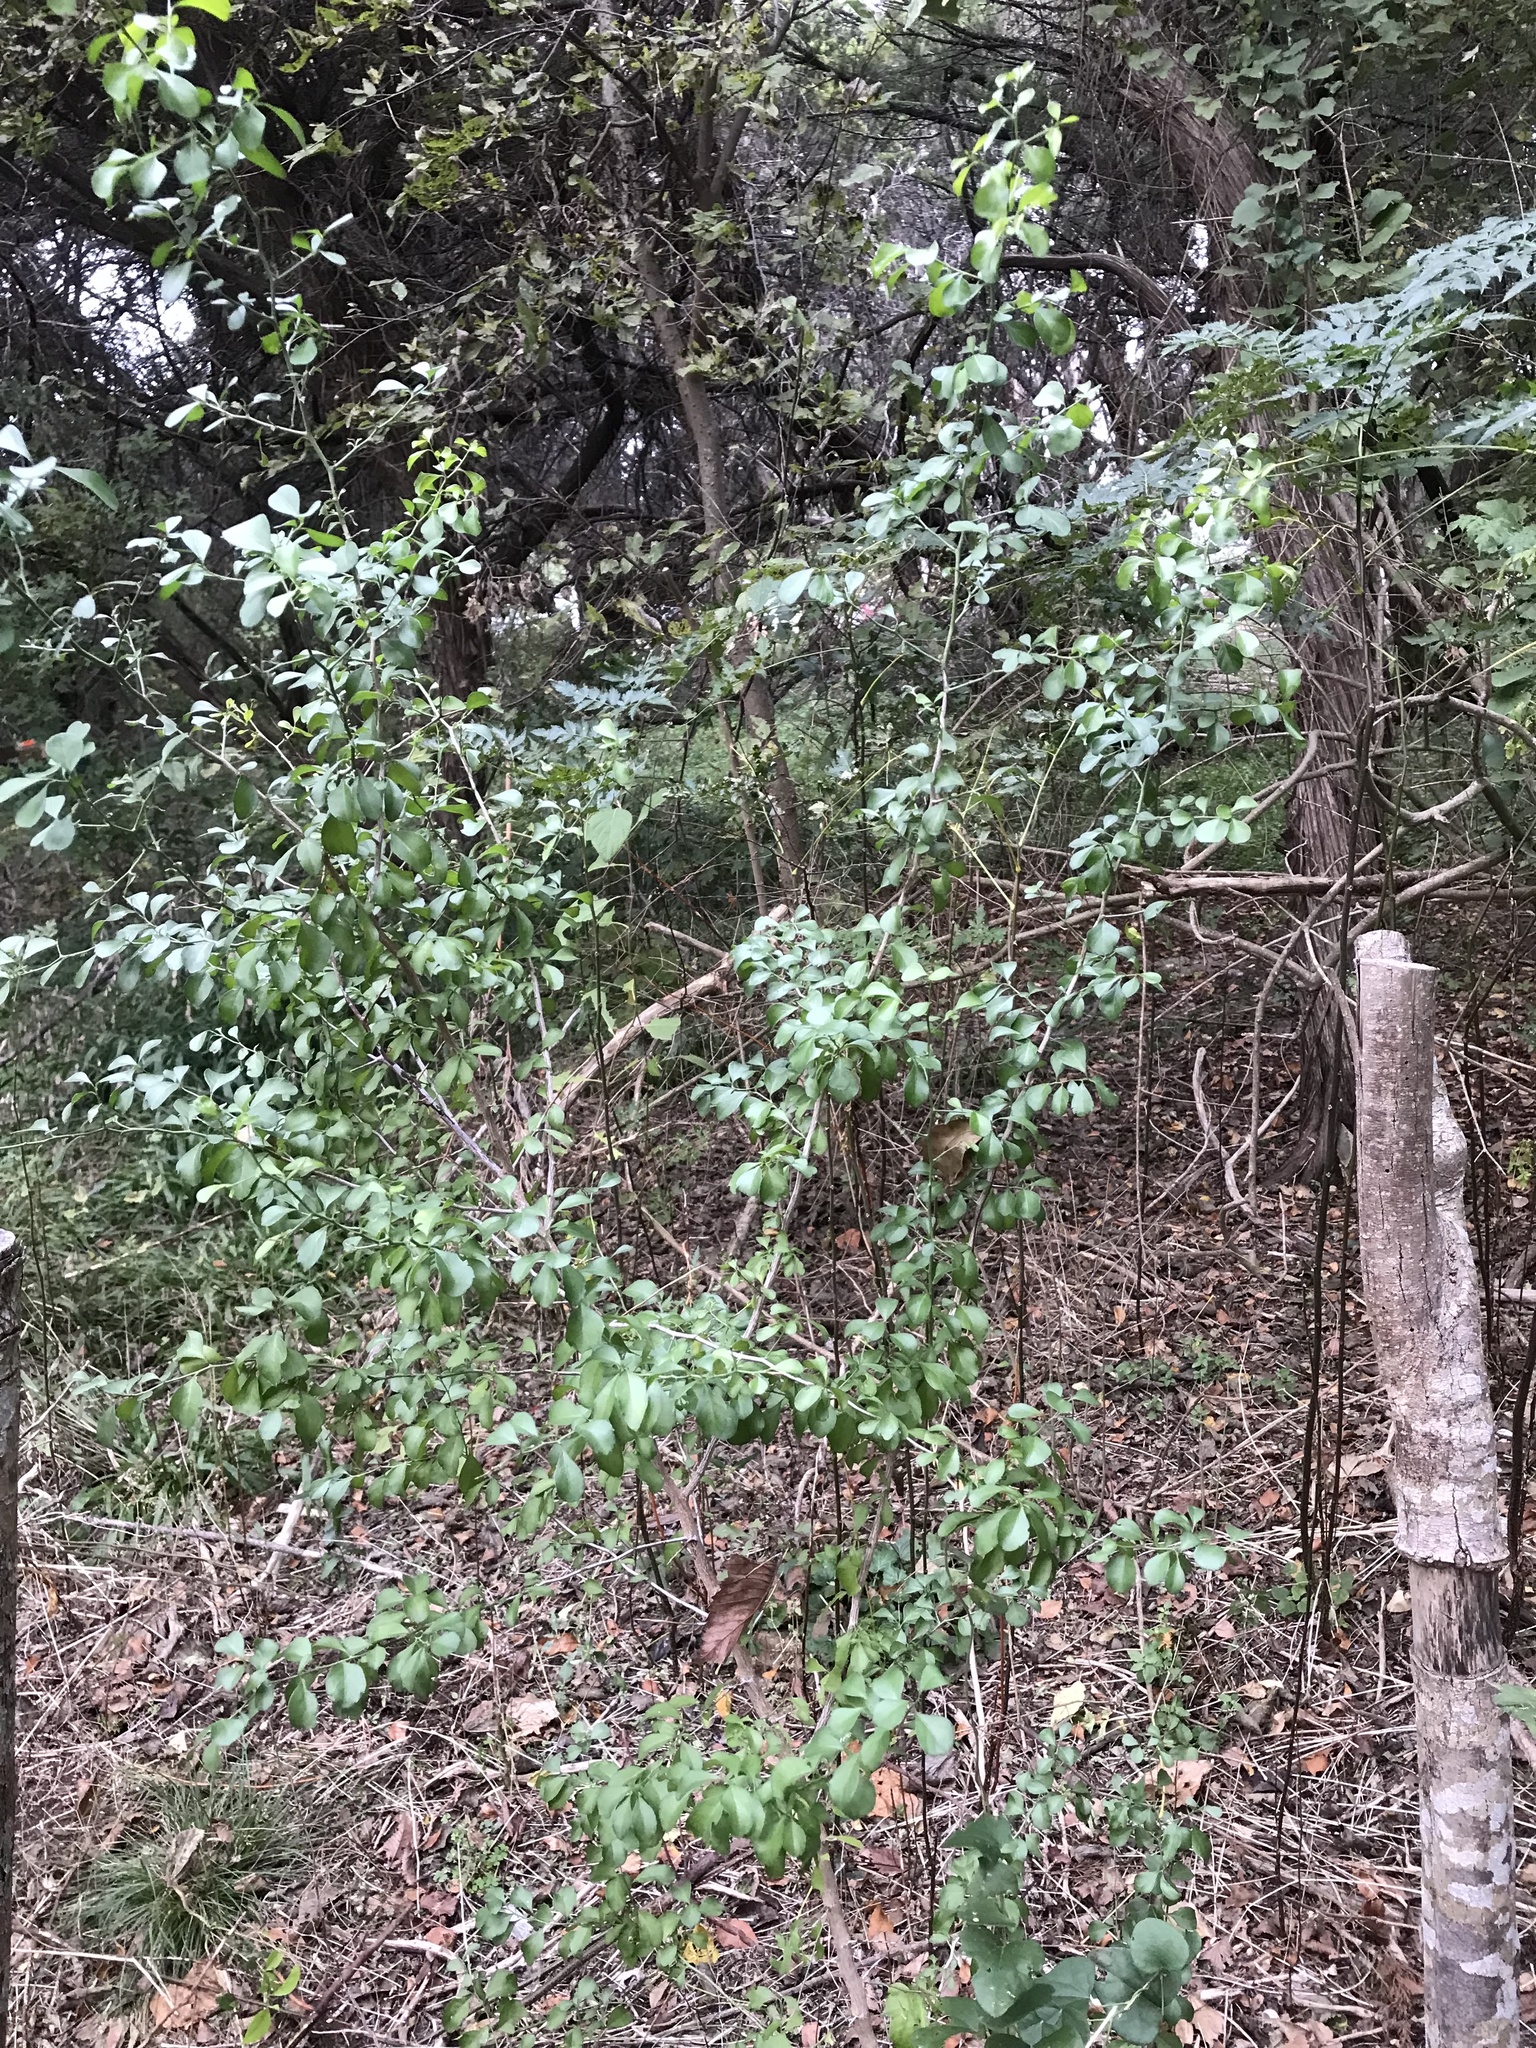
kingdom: Plantae
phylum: Tracheophyta
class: Magnoliopsida
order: Rosales
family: Rhamnaceae
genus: Condalia
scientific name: Condalia hookeri
